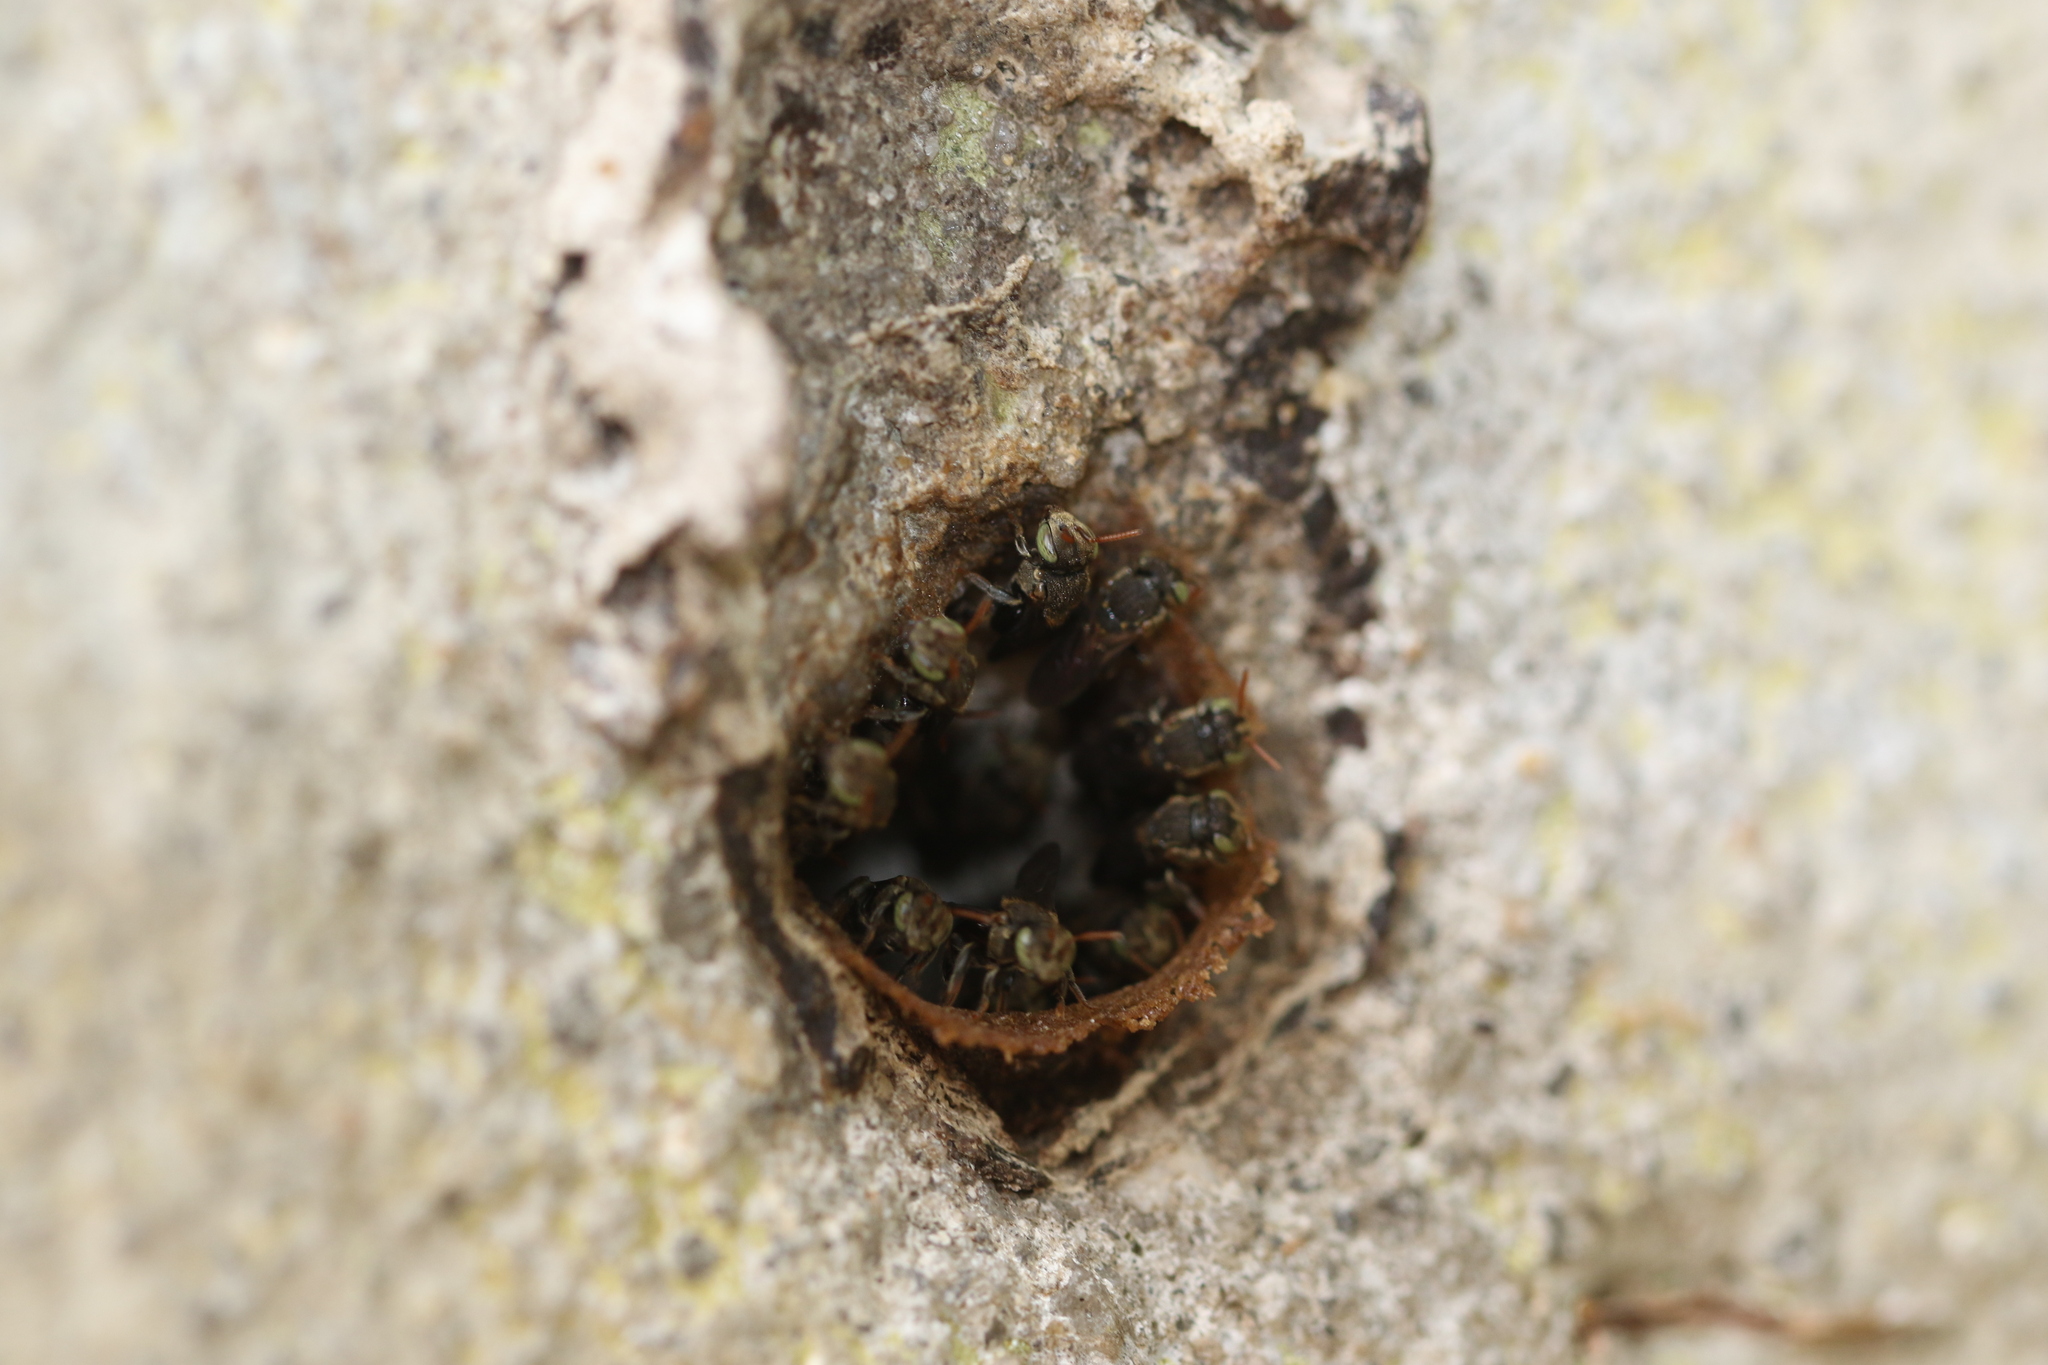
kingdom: Animalia
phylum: Arthropoda
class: Insecta
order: Hymenoptera
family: Apidae
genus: Nannotrigona
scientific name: Nannotrigona testaceicornis
